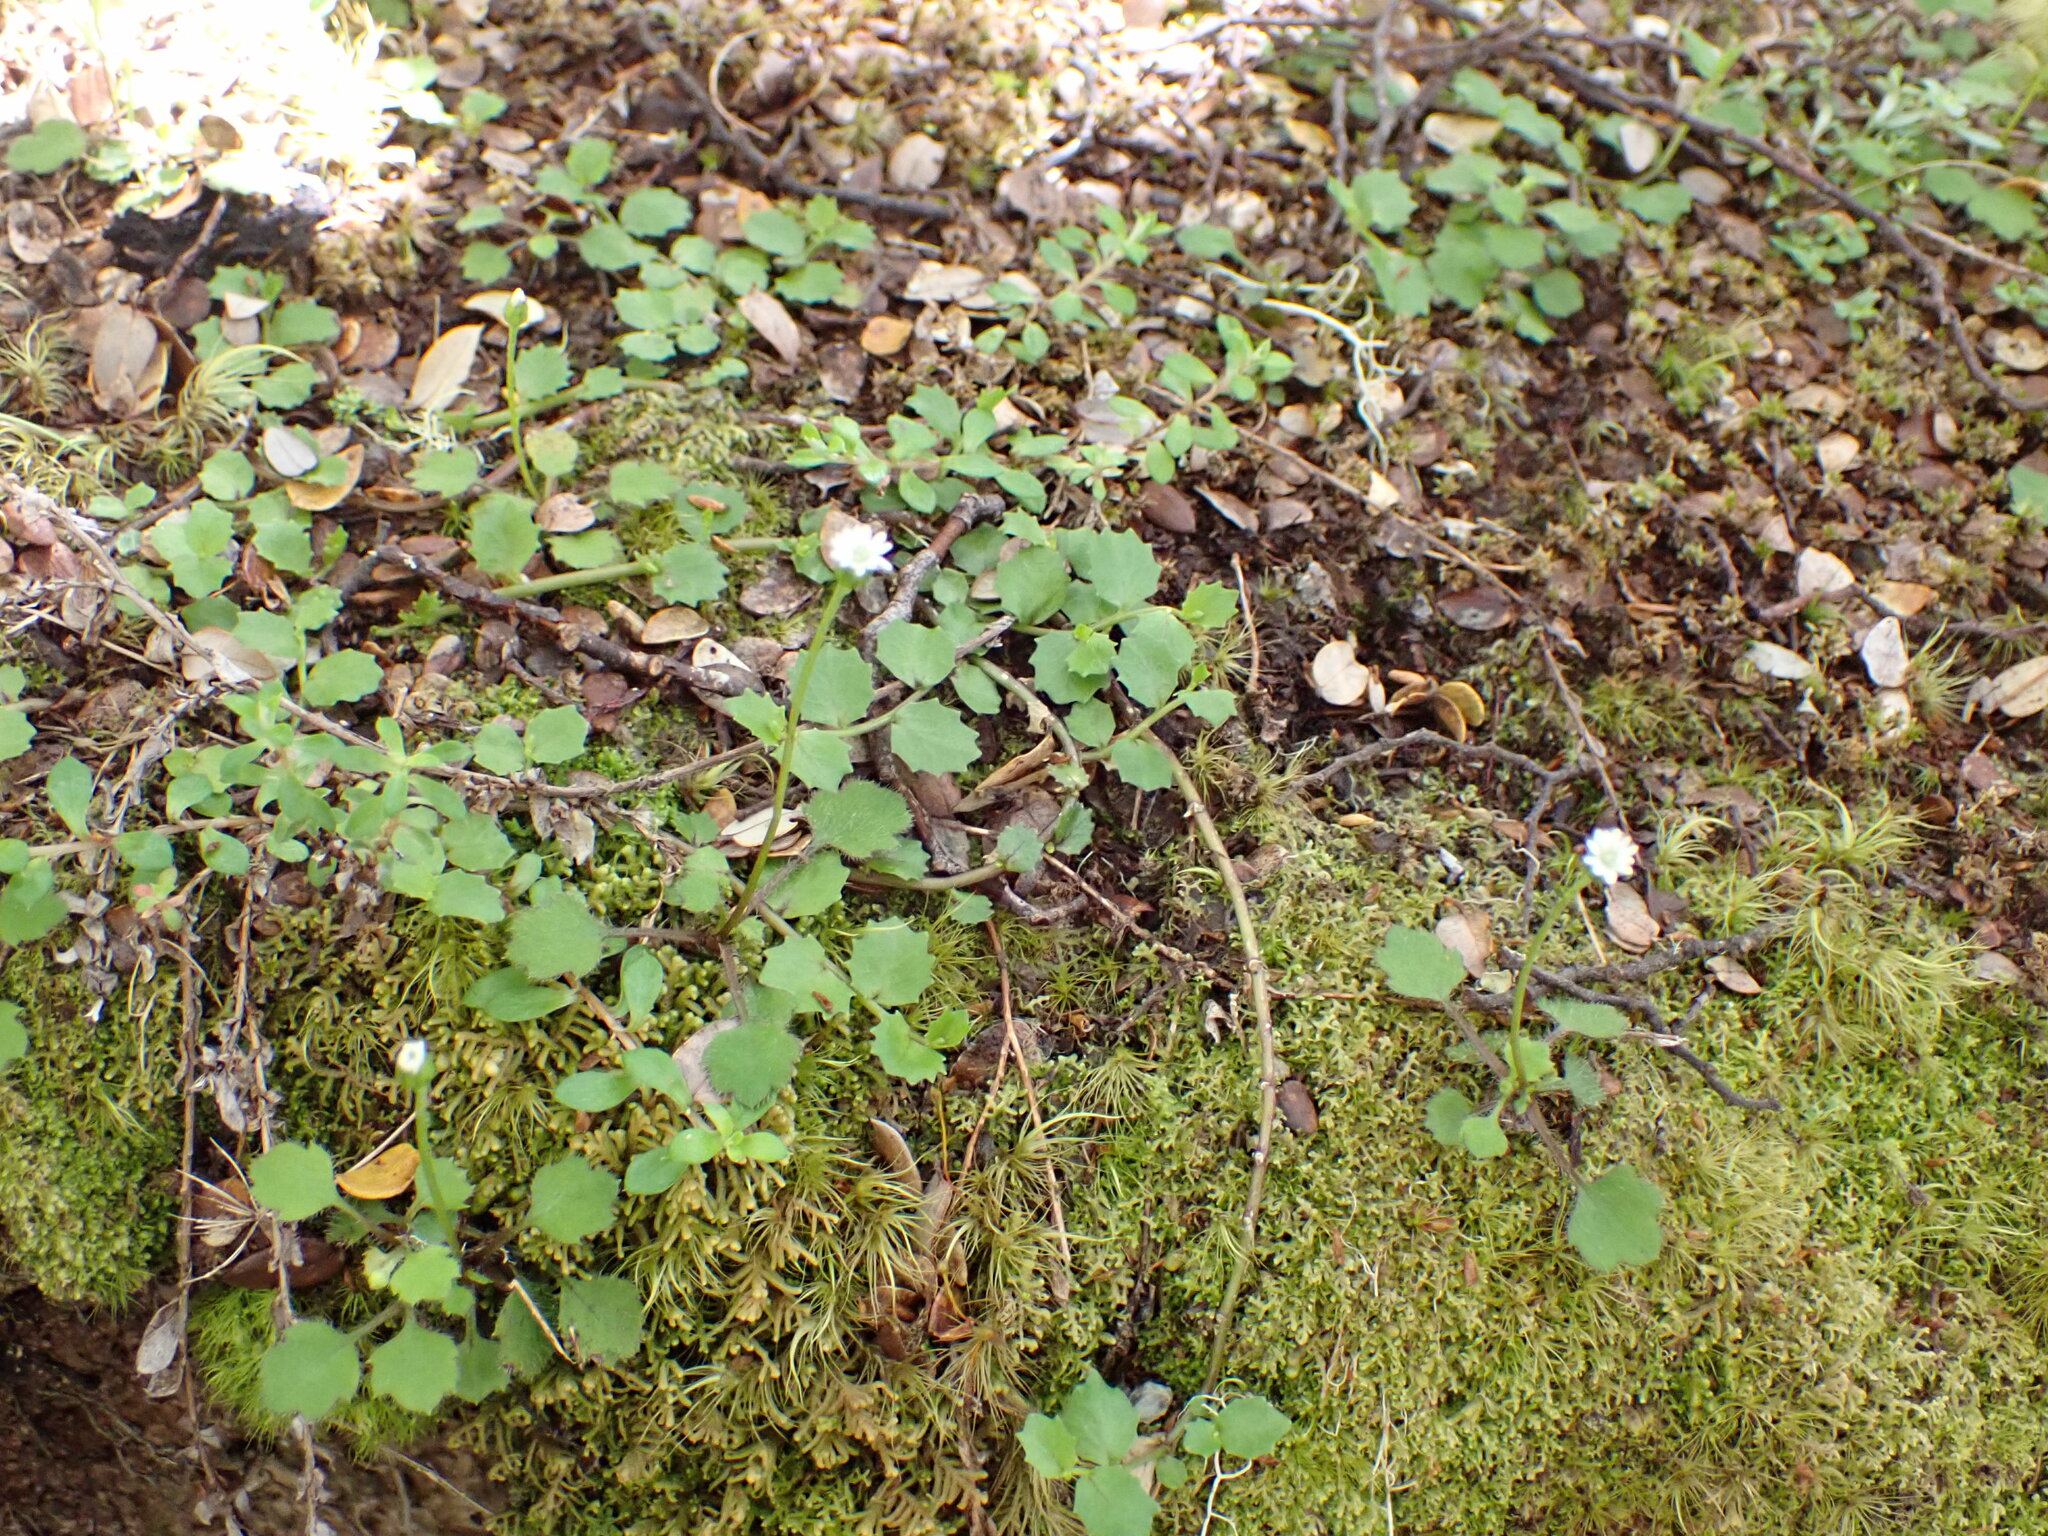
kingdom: Plantae
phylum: Tracheophyta
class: Magnoliopsida
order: Asterales
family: Asteraceae
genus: Lagenophora
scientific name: Lagenophora strangulata
